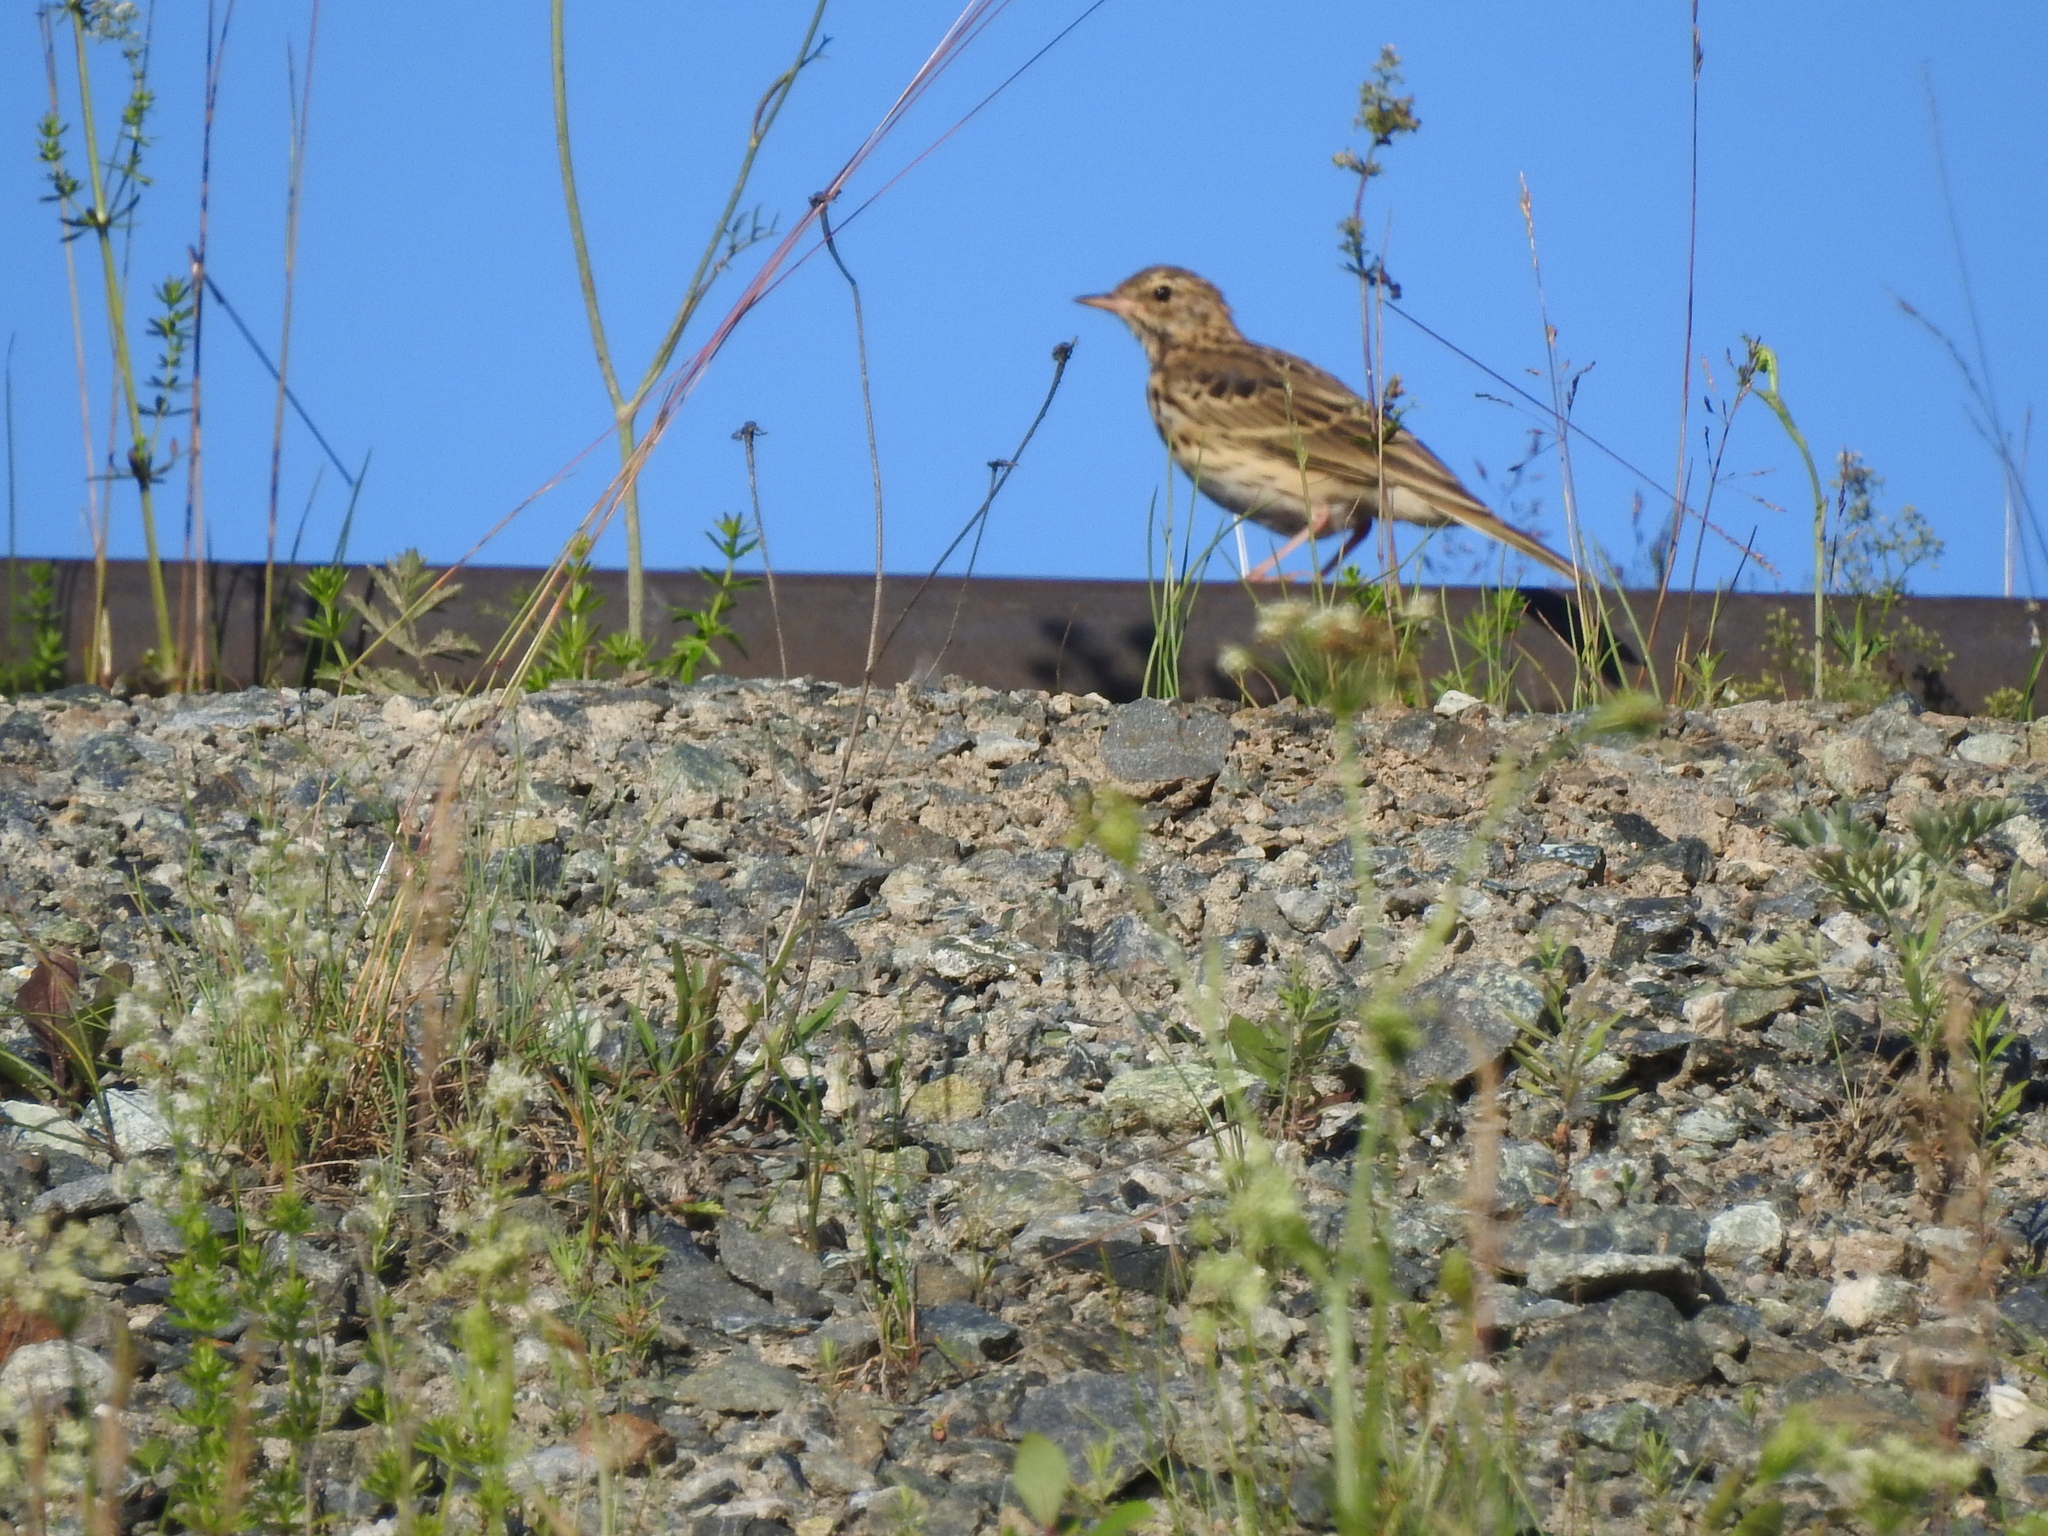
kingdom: Animalia
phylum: Chordata
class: Aves
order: Passeriformes
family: Motacillidae
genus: Anthus
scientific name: Anthus trivialis
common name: Tree pipit
